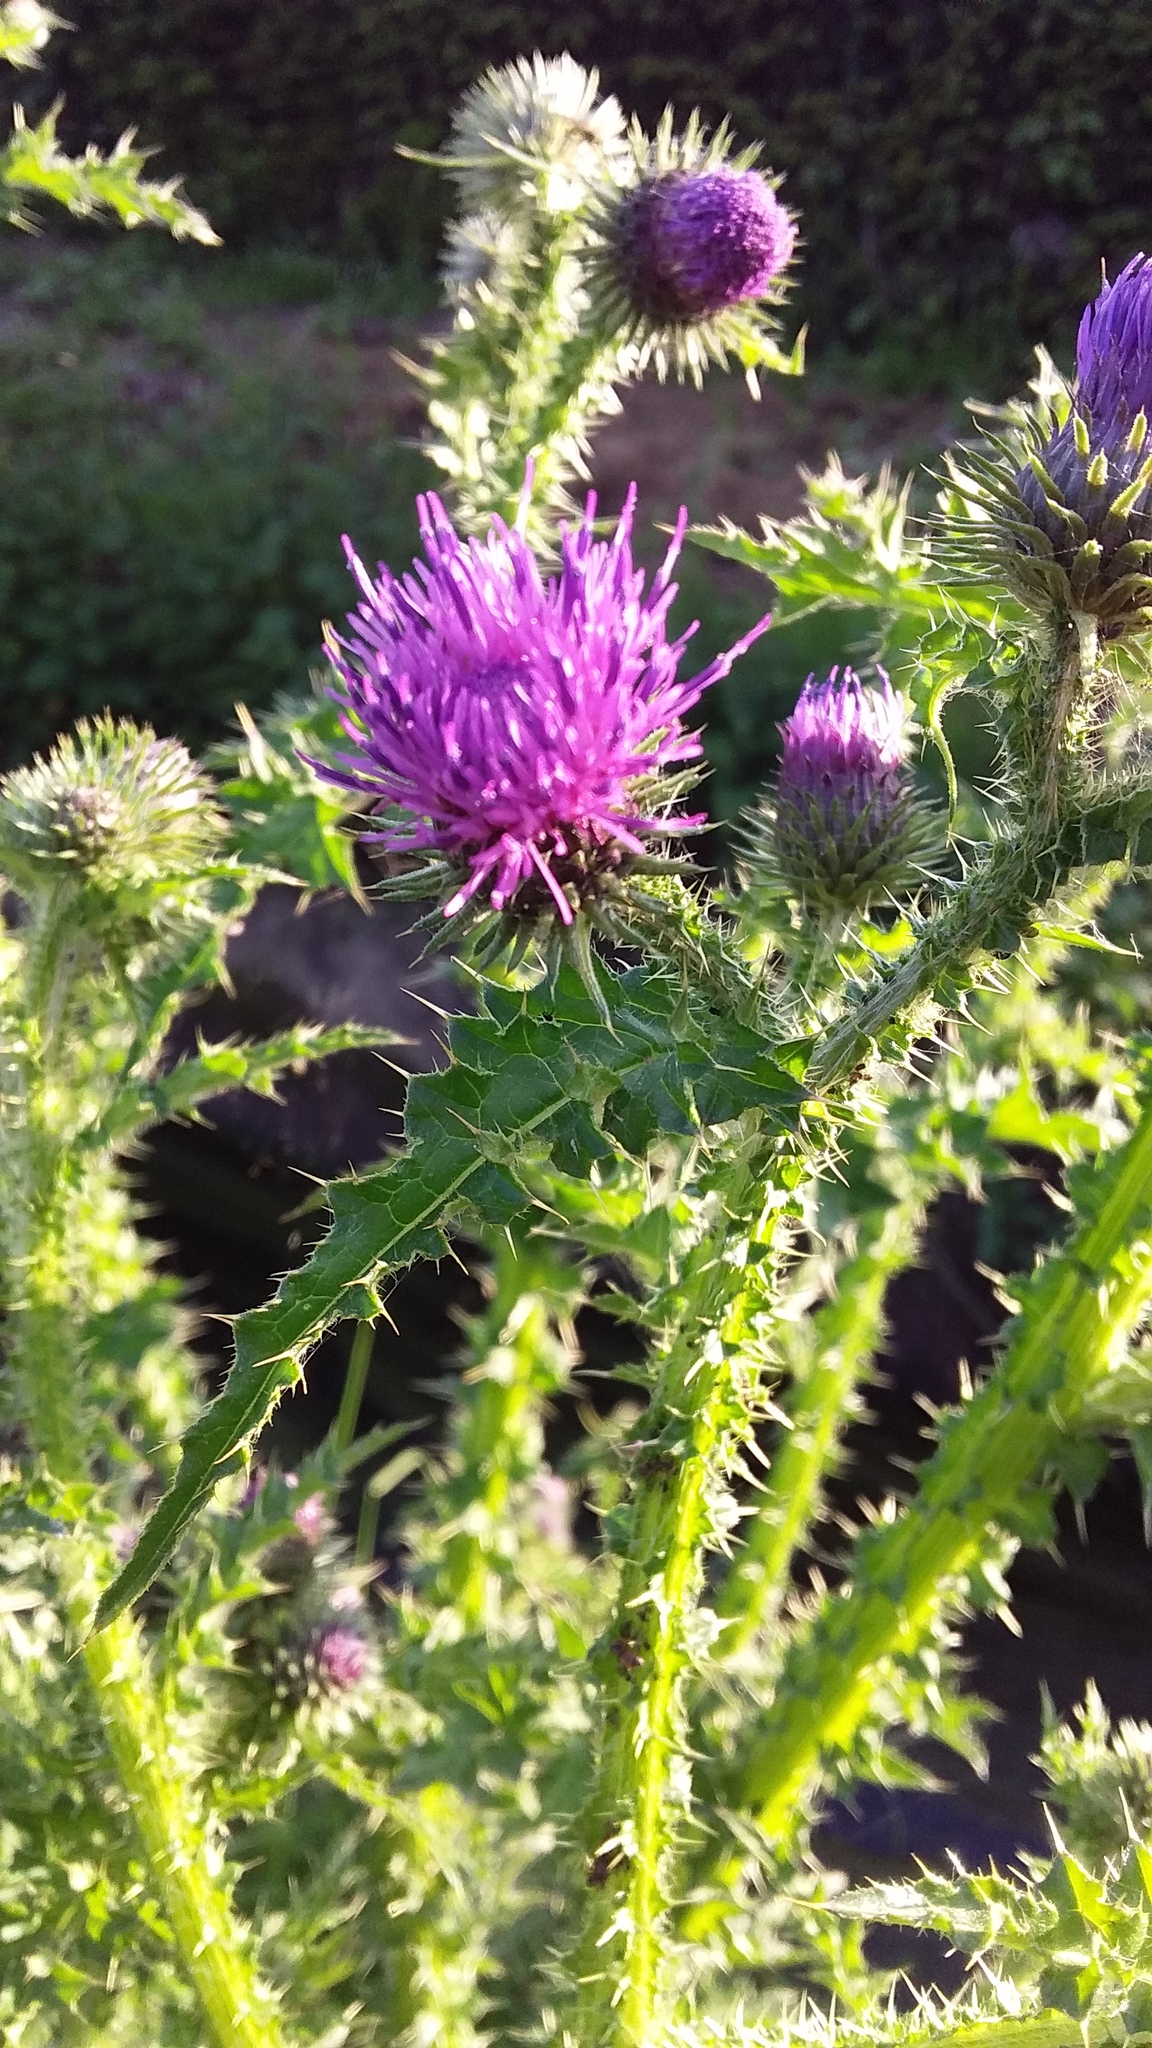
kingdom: Plantae
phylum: Tracheophyta
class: Magnoliopsida
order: Asterales
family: Asteraceae
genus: Carduus
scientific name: Carduus crispus
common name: Welted thistle
